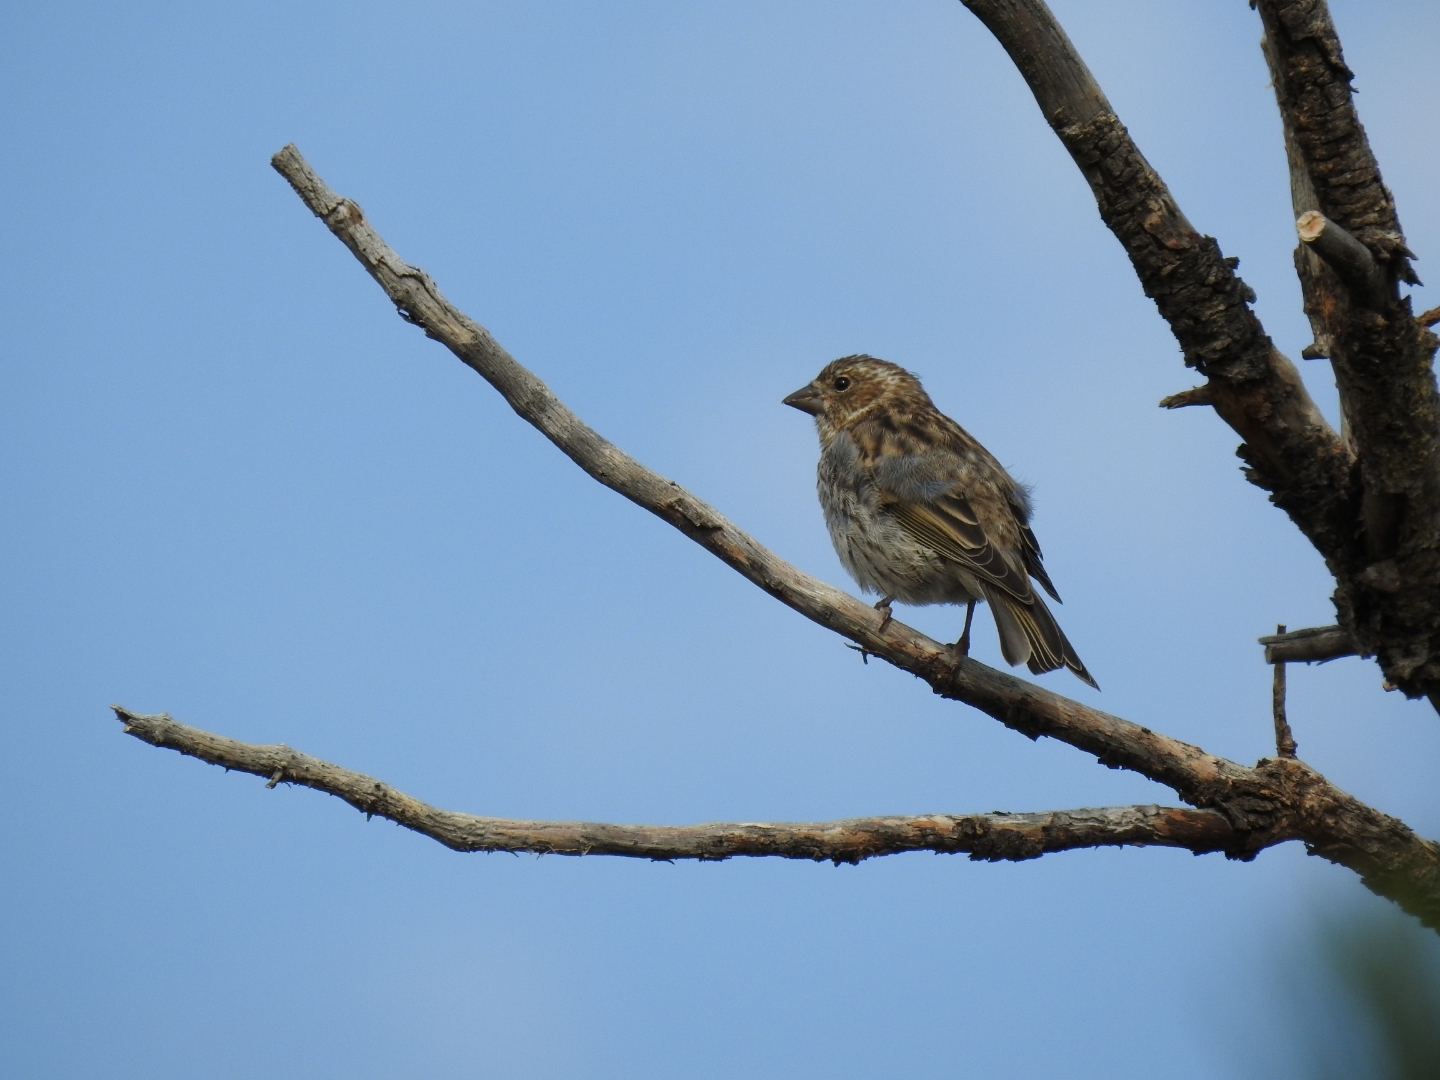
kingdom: Animalia
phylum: Chordata
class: Aves
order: Passeriformes
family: Fringillidae
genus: Haemorhous
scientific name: Haemorhous cassinii
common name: Cassin's finch
